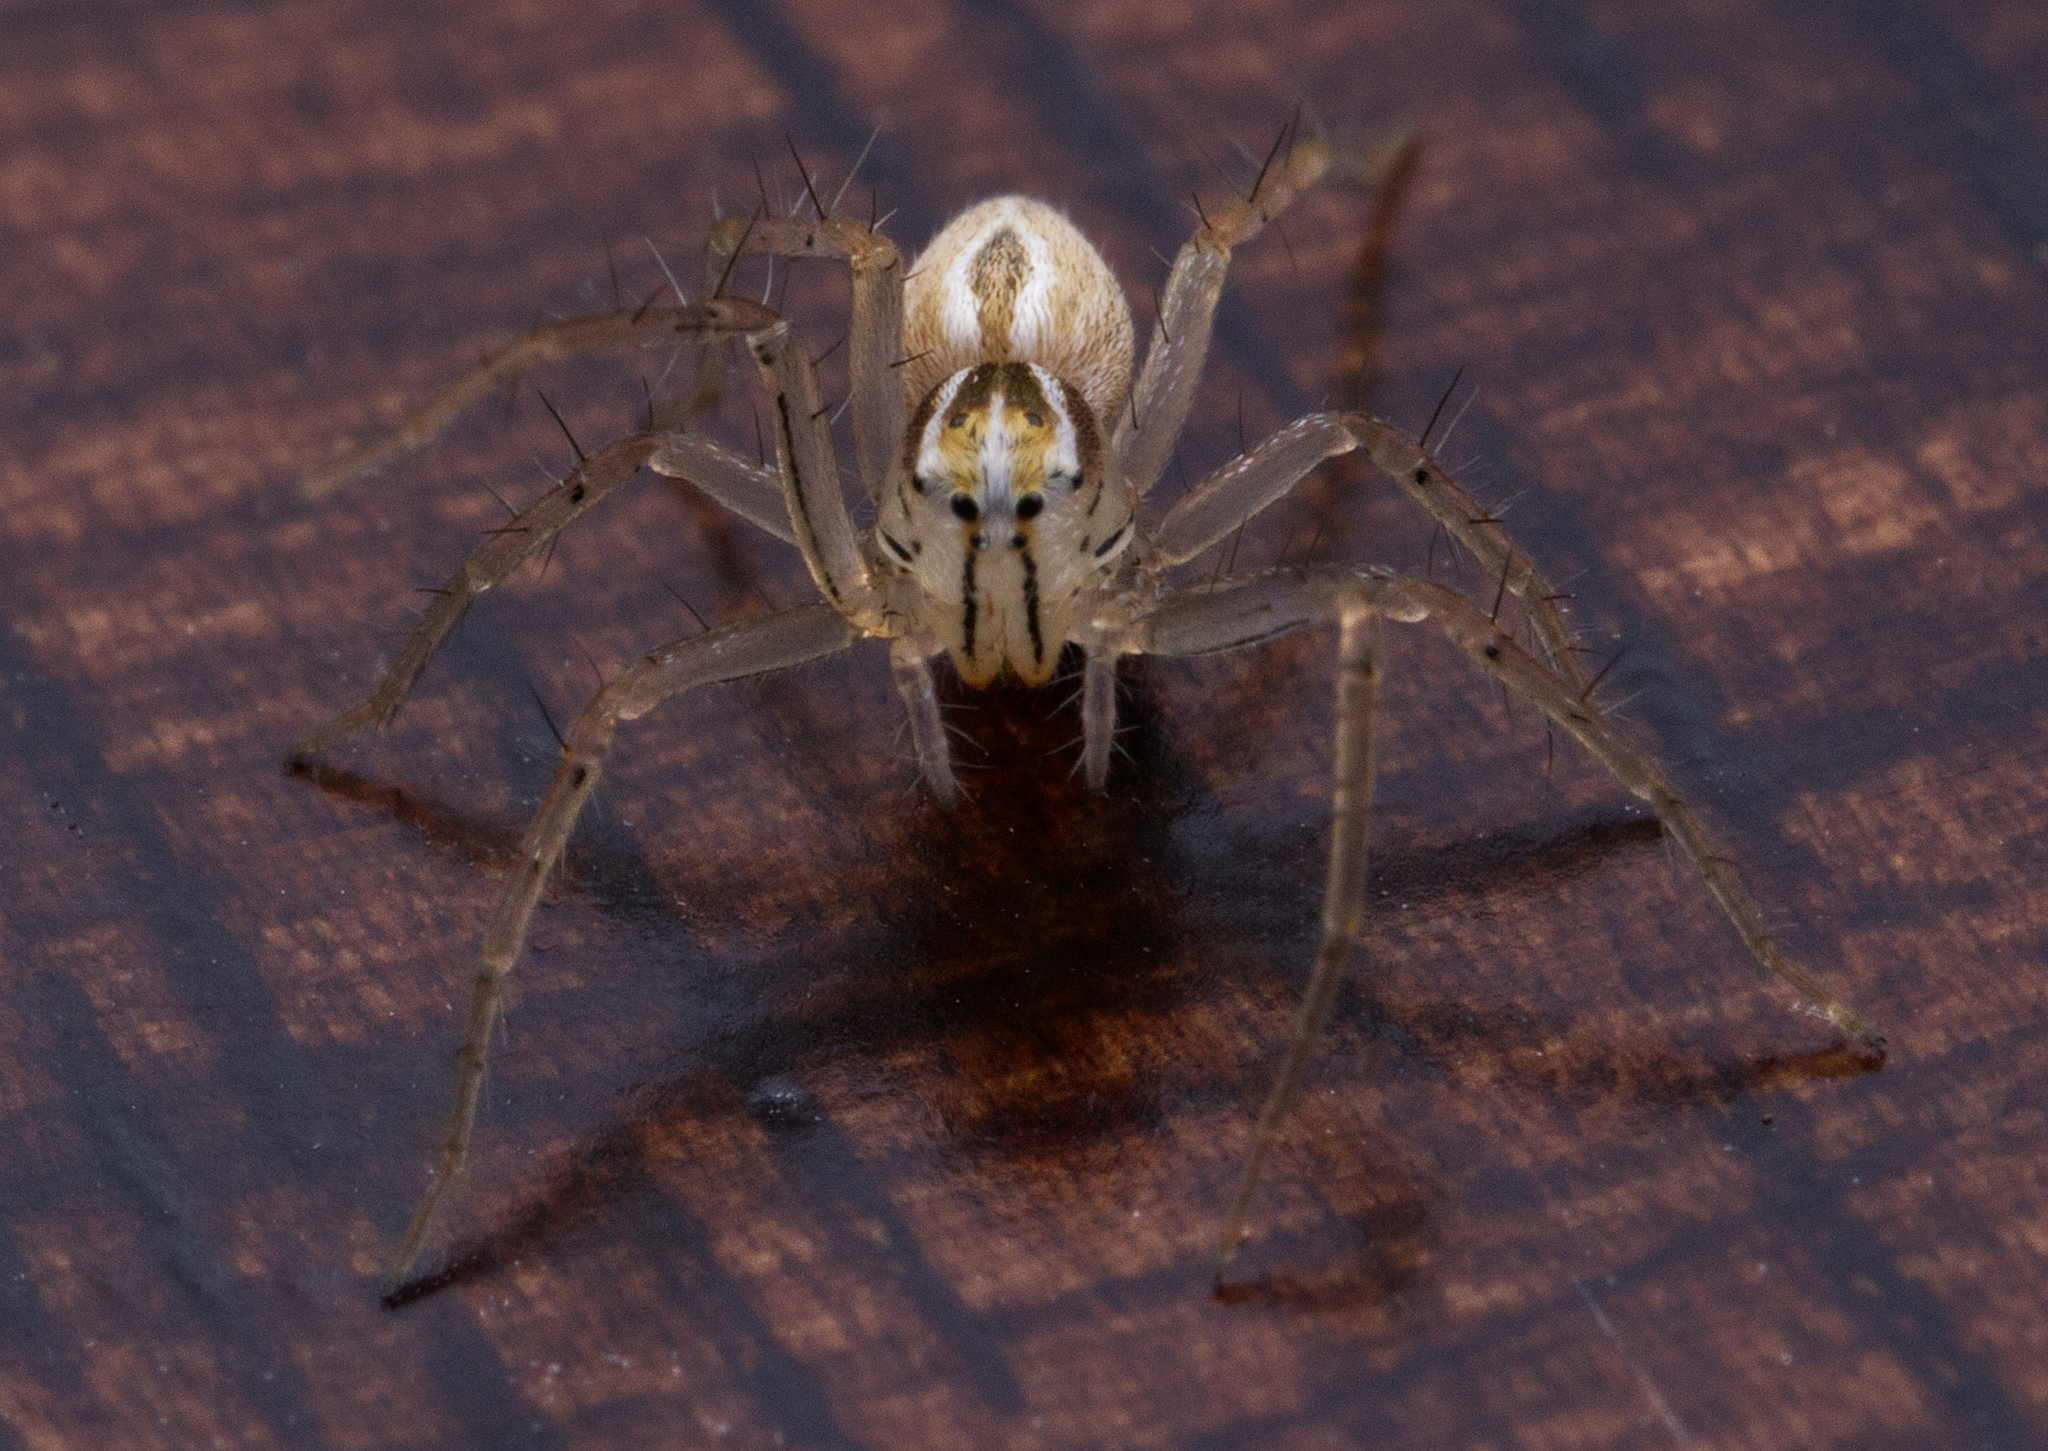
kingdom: Animalia
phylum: Arthropoda
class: Arachnida
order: Araneae
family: Oxyopidae
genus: Oxyopes
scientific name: Oxyopes salticus
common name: Lynx spiders
